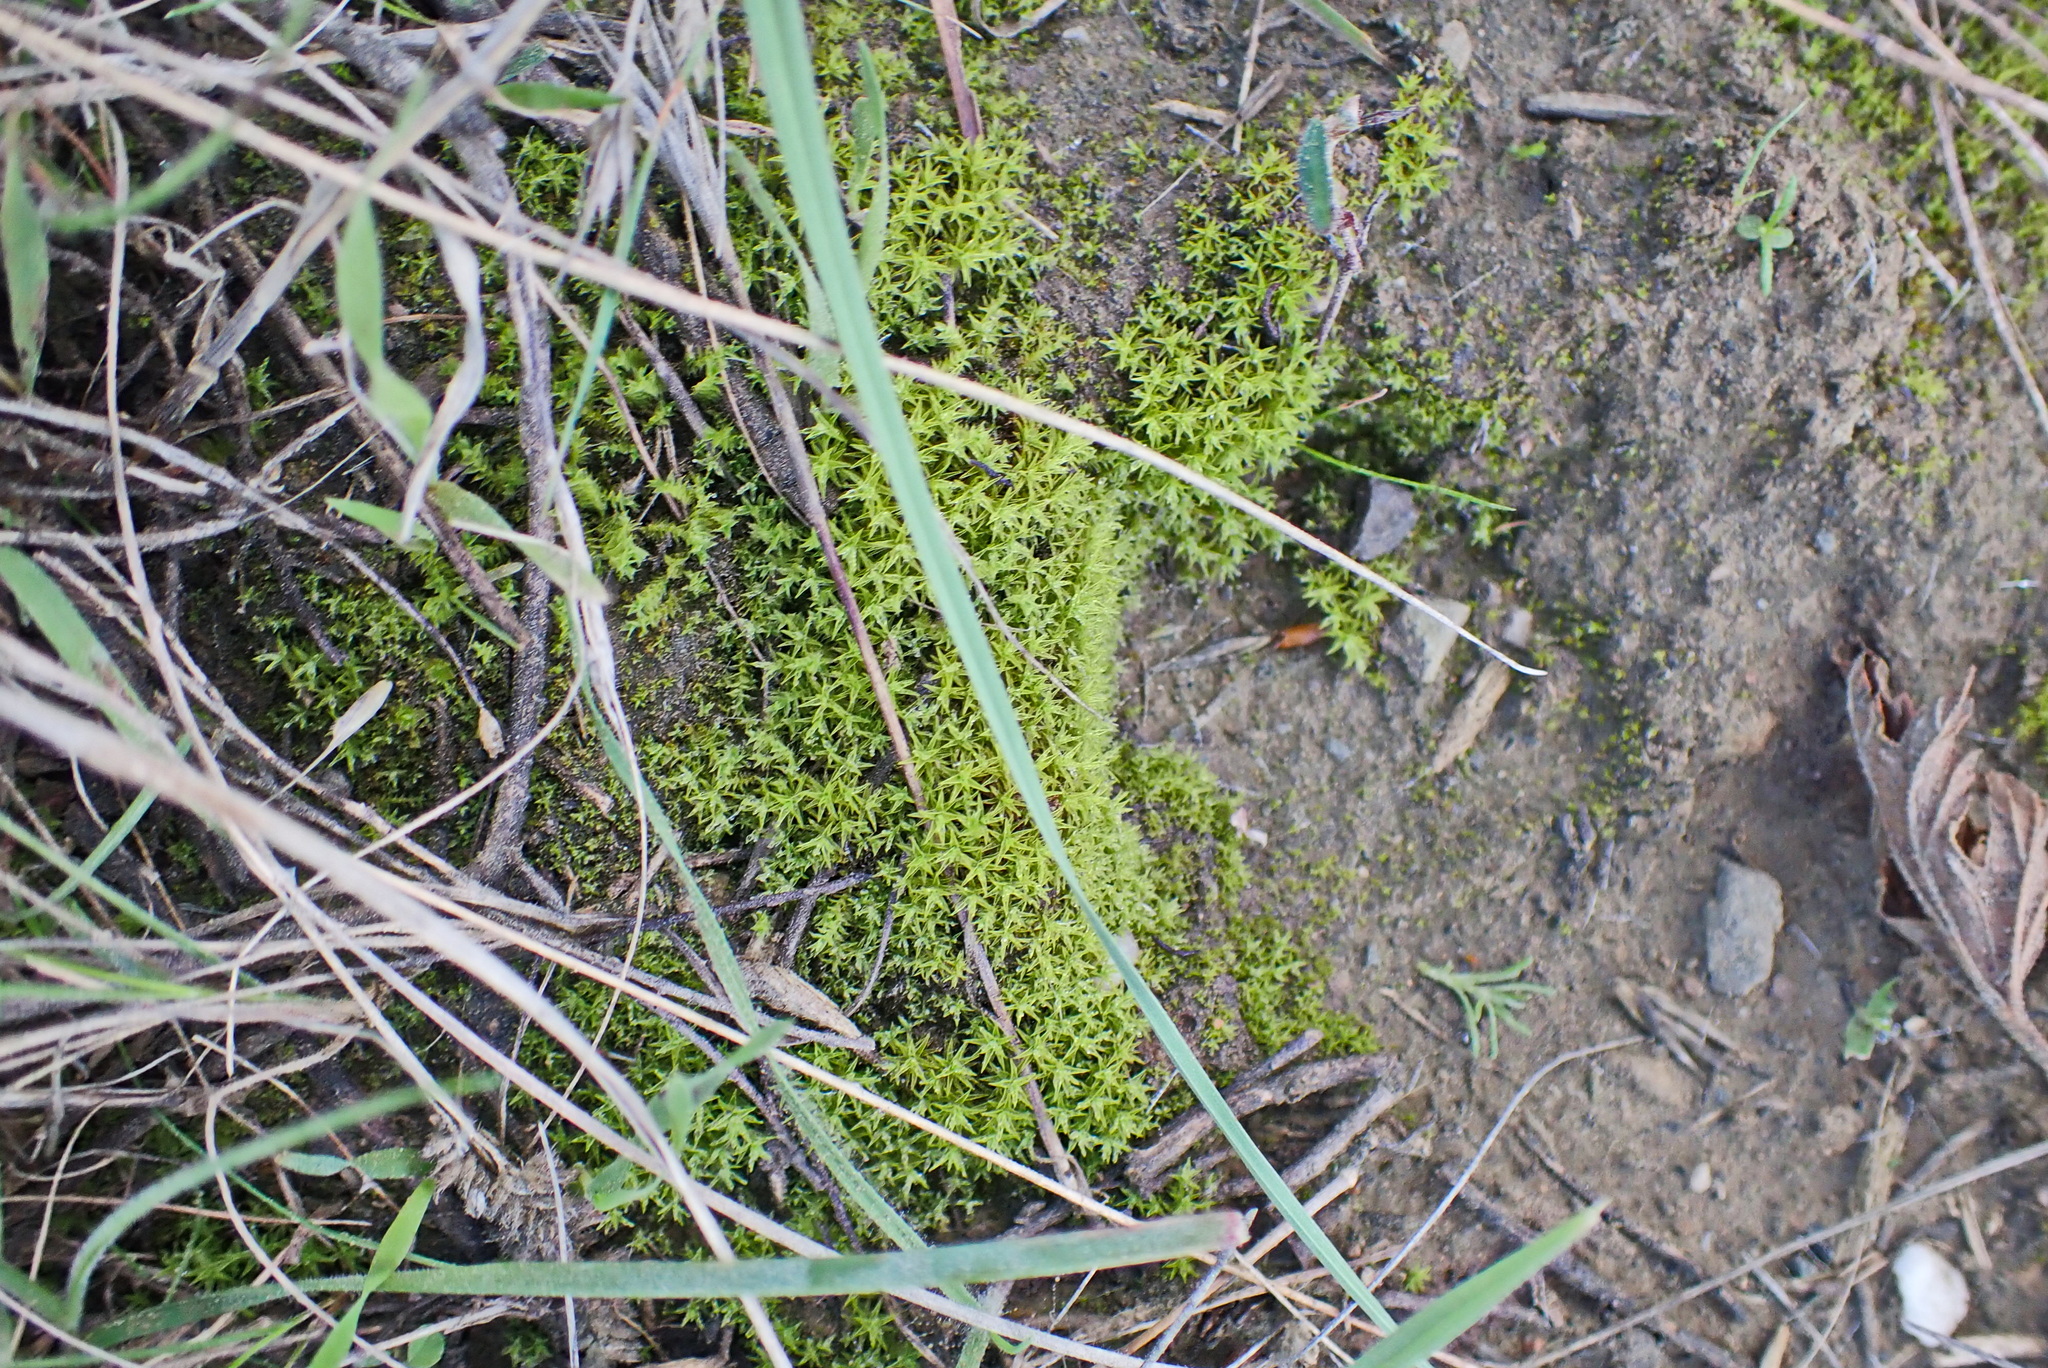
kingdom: Plantae
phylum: Bryophyta
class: Bryopsida
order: Pottiales
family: Pottiaceae
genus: Pseudocrossidium
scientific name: Pseudocrossidium crinitum
